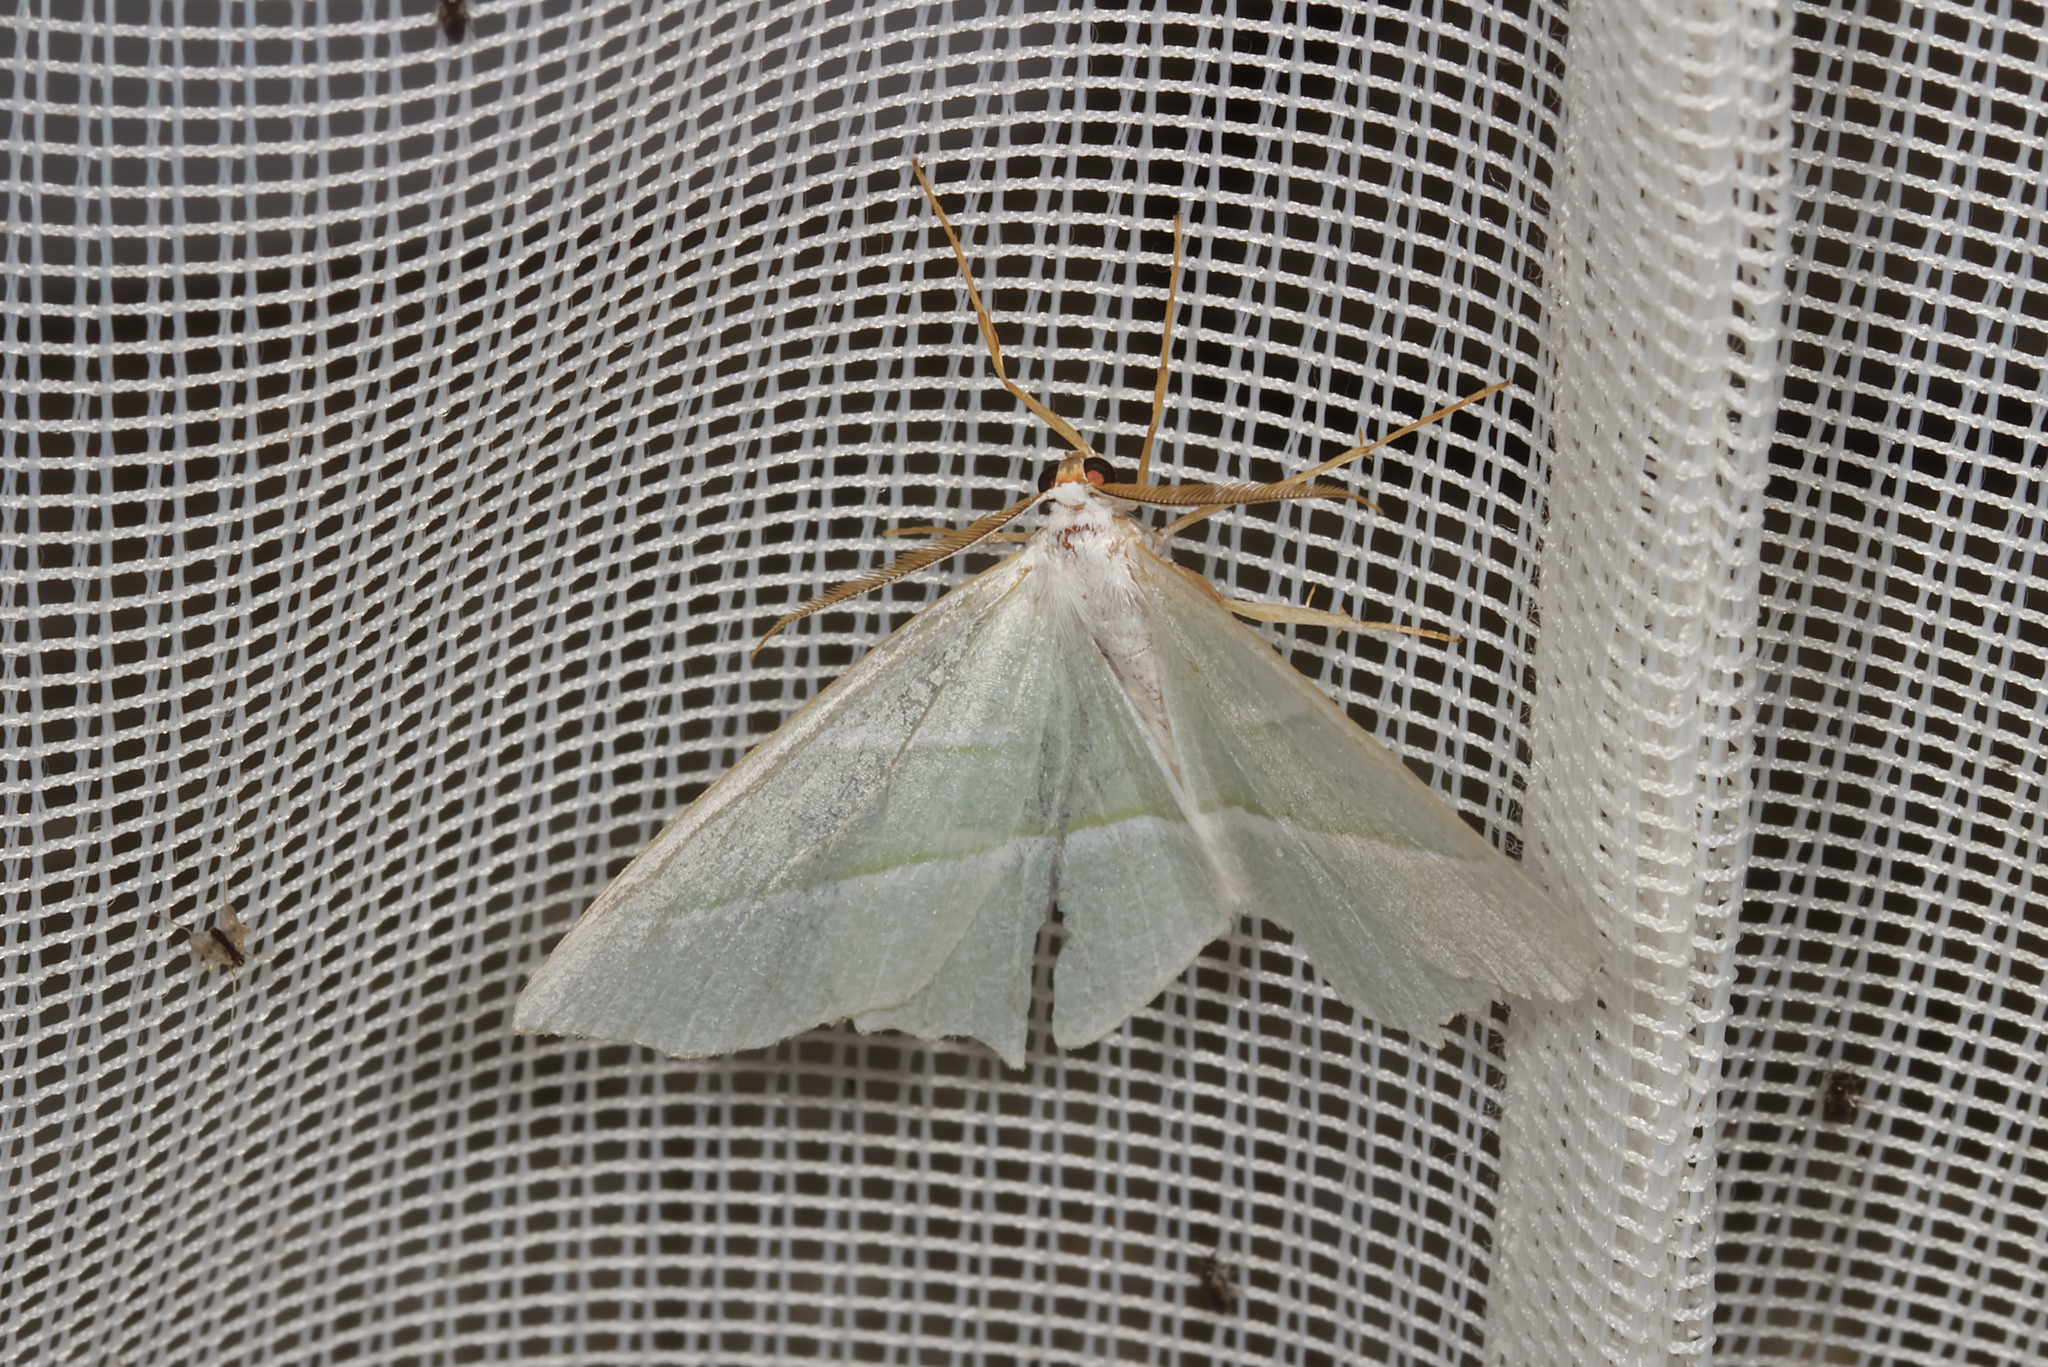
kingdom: Animalia
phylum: Arthropoda
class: Insecta
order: Lepidoptera
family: Geometridae
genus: Campaea
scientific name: Campaea margaritaria
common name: Light emerald
